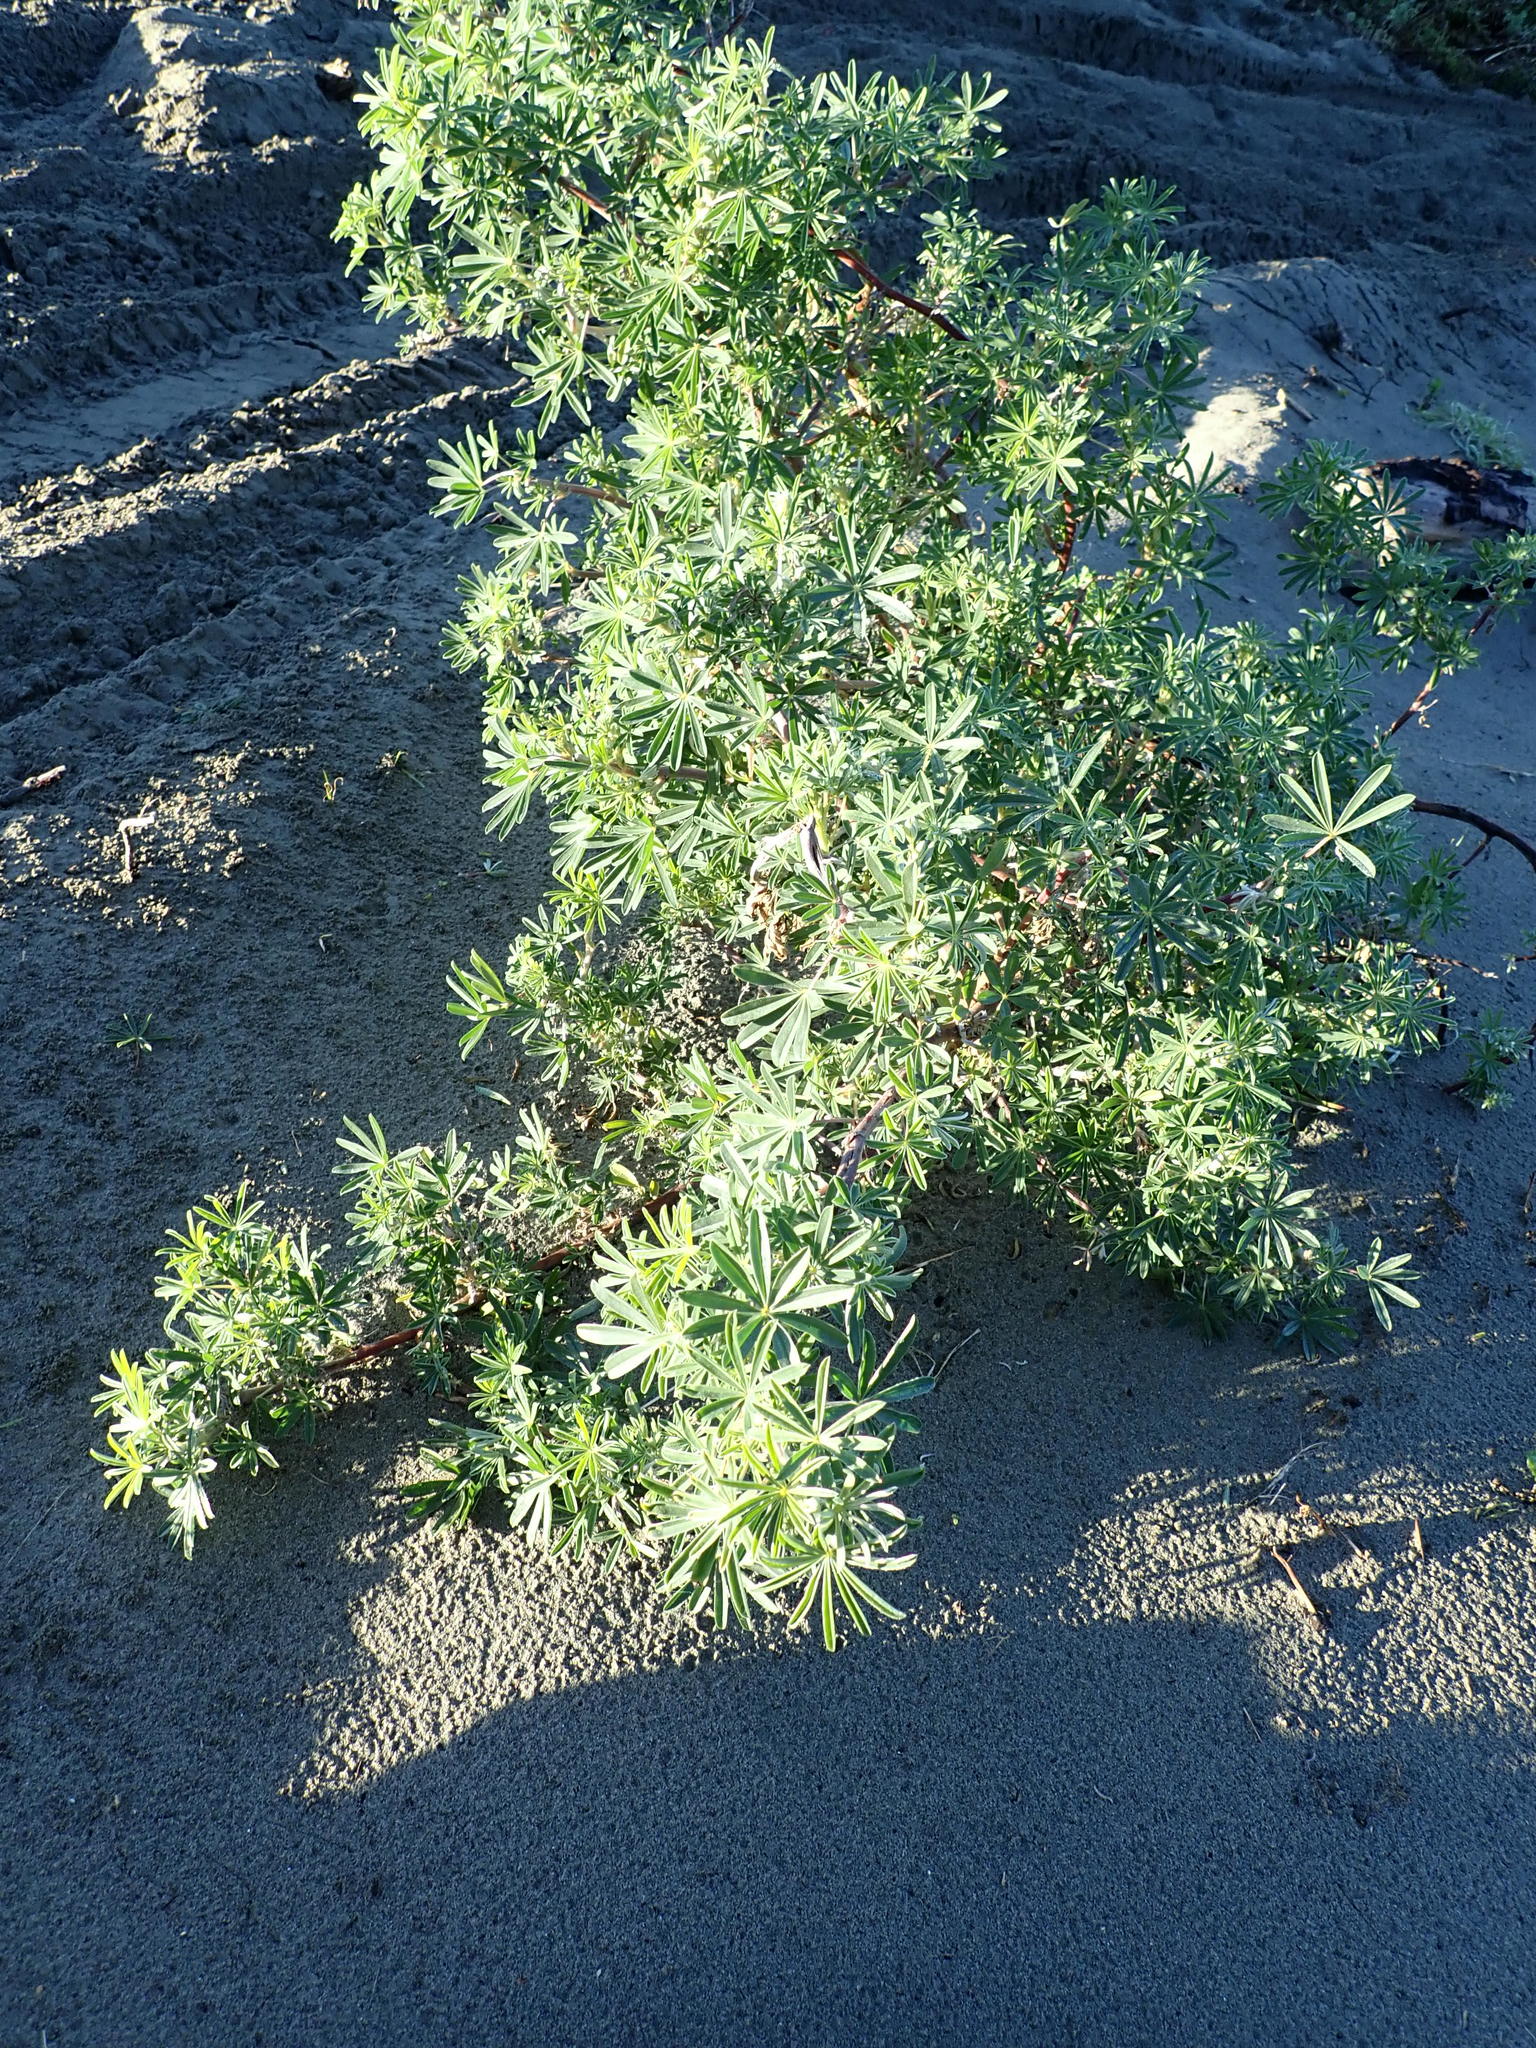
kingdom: Plantae
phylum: Tracheophyta
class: Magnoliopsida
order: Fabales
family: Fabaceae
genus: Lupinus
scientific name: Lupinus arboreus
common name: Yellow bush lupine
